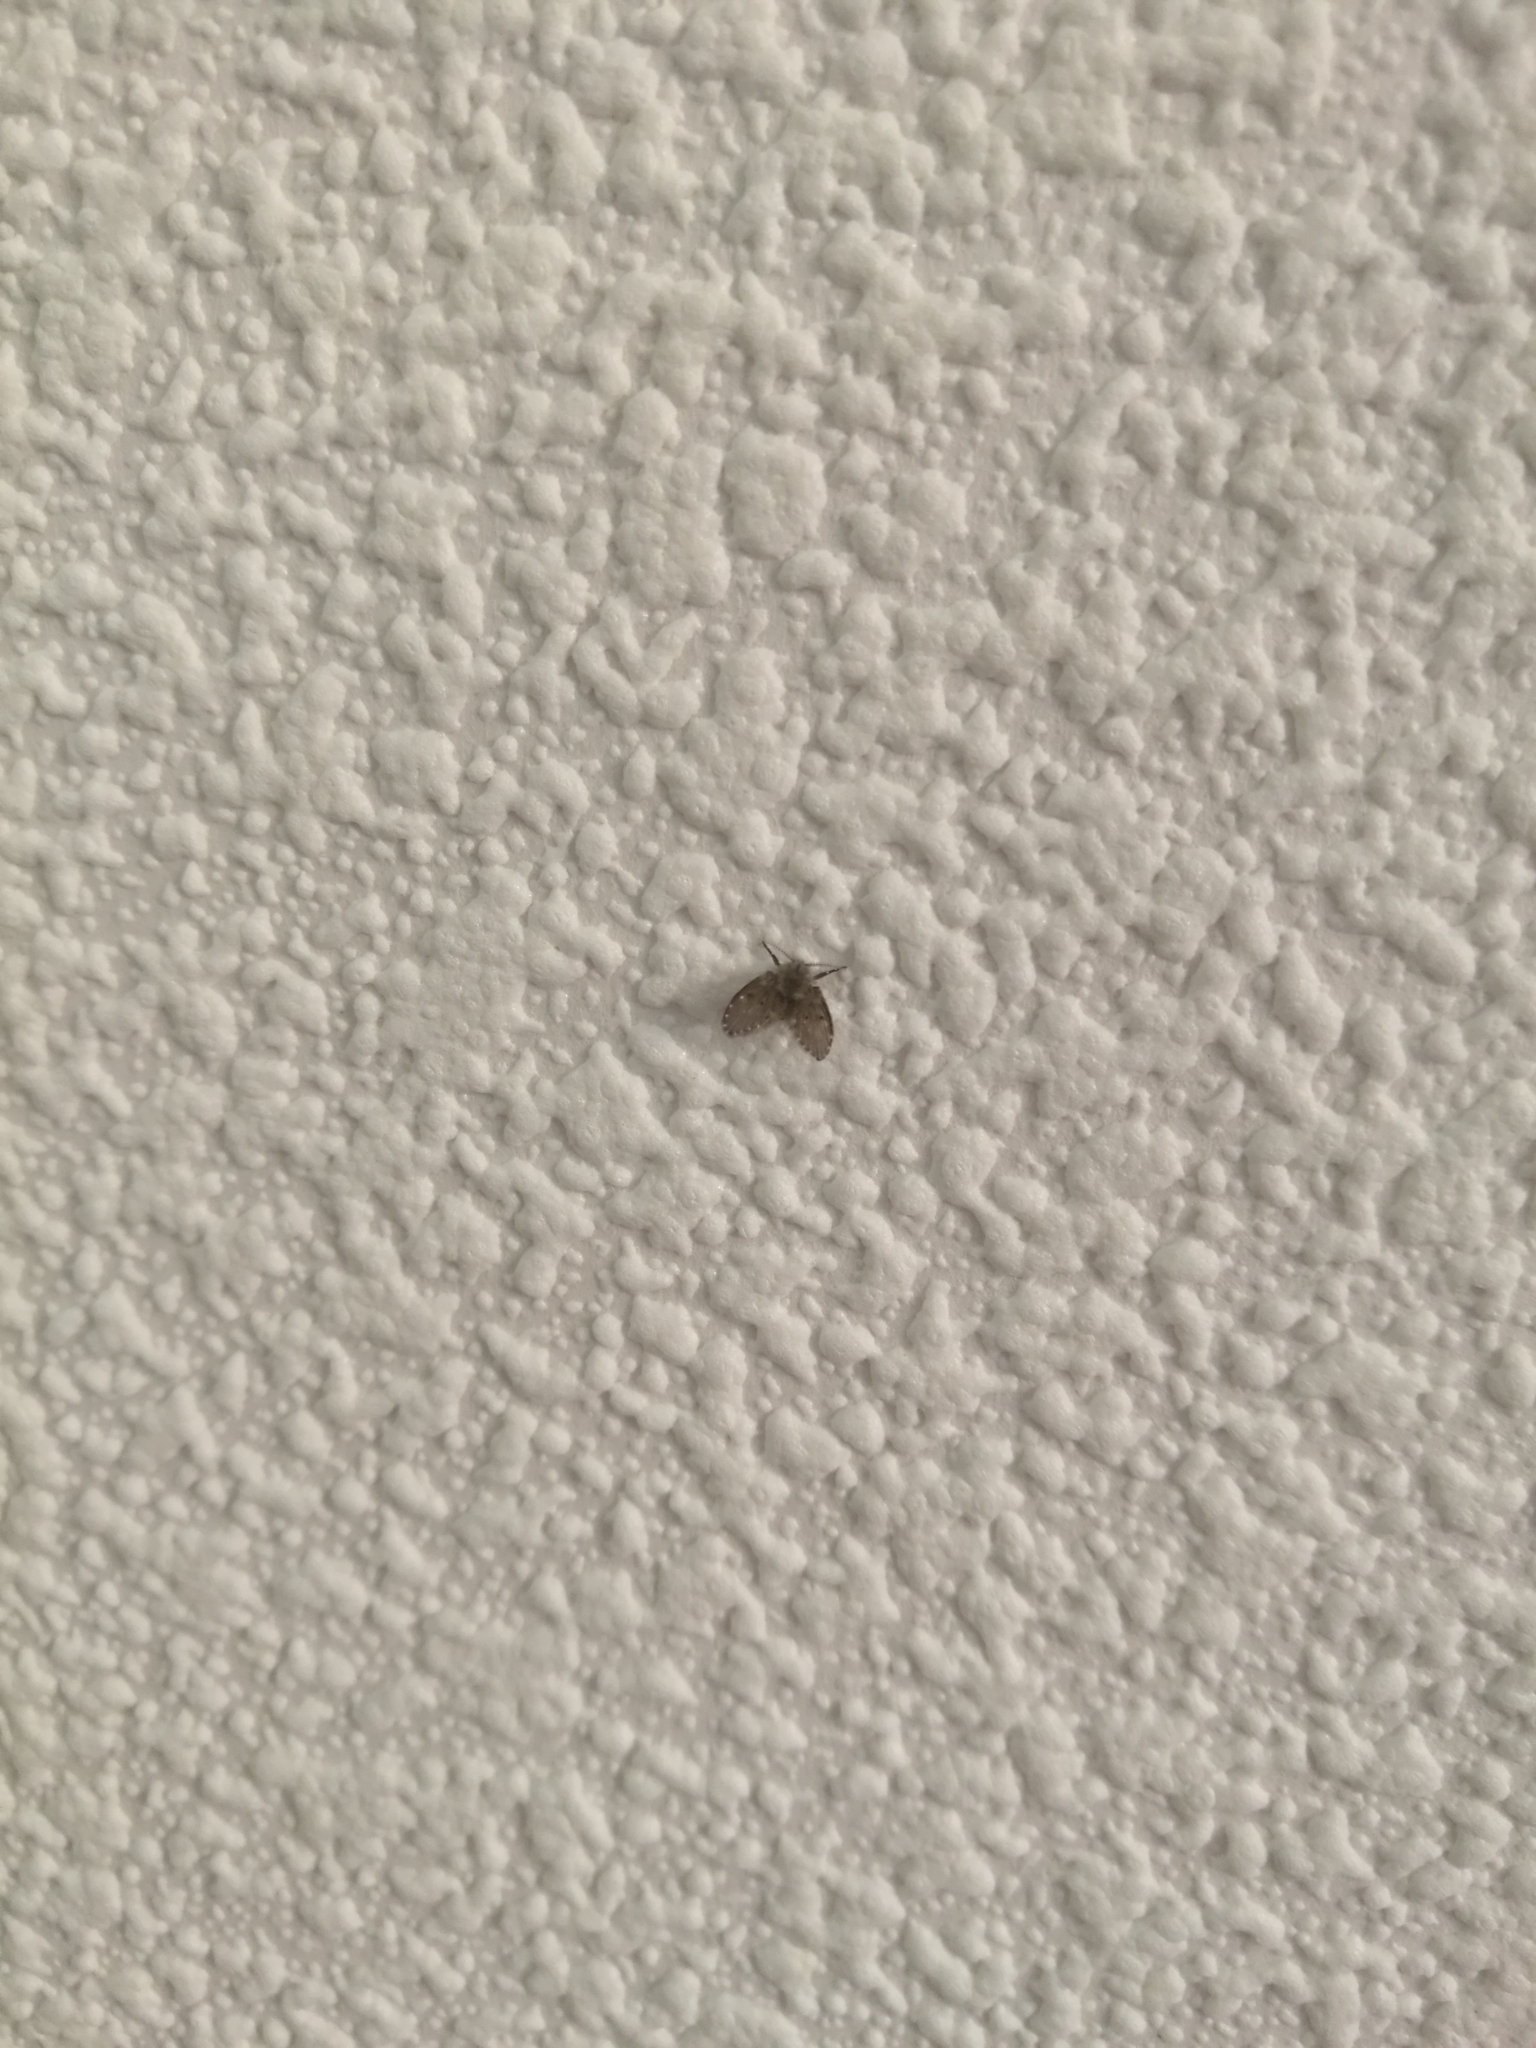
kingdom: Animalia
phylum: Arthropoda
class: Insecta
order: Diptera
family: Psychodidae
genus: Clogmia
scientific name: Clogmia albipunctatus
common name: White-spotted moth fly
